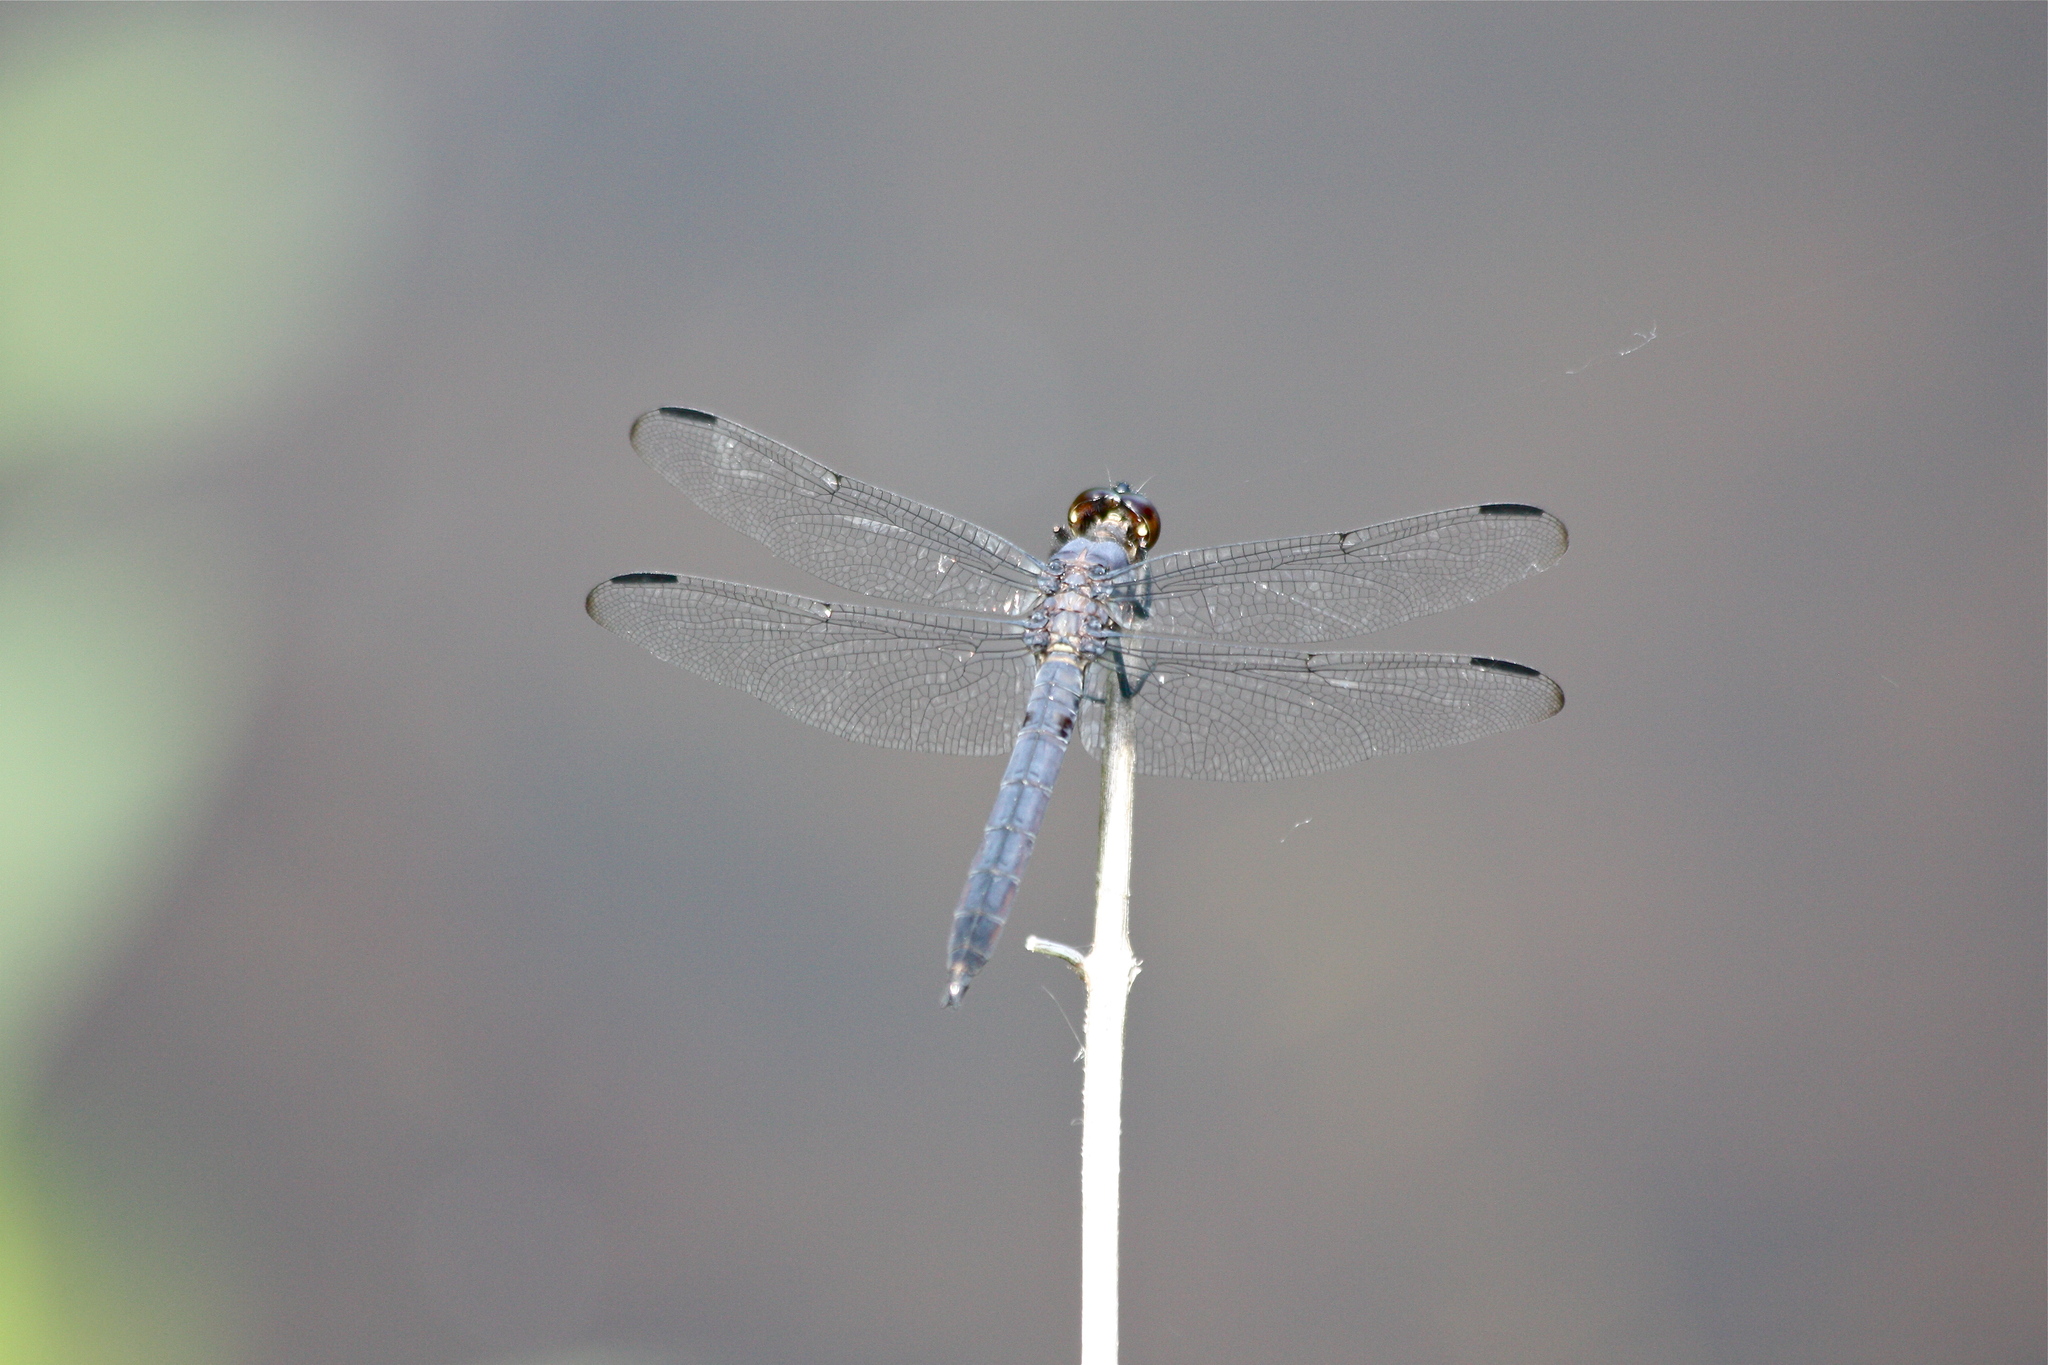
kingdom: Animalia
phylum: Arthropoda
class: Insecta
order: Odonata
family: Libellulidae
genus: Libellula
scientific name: Libellula incesta
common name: Slaty skimmer
